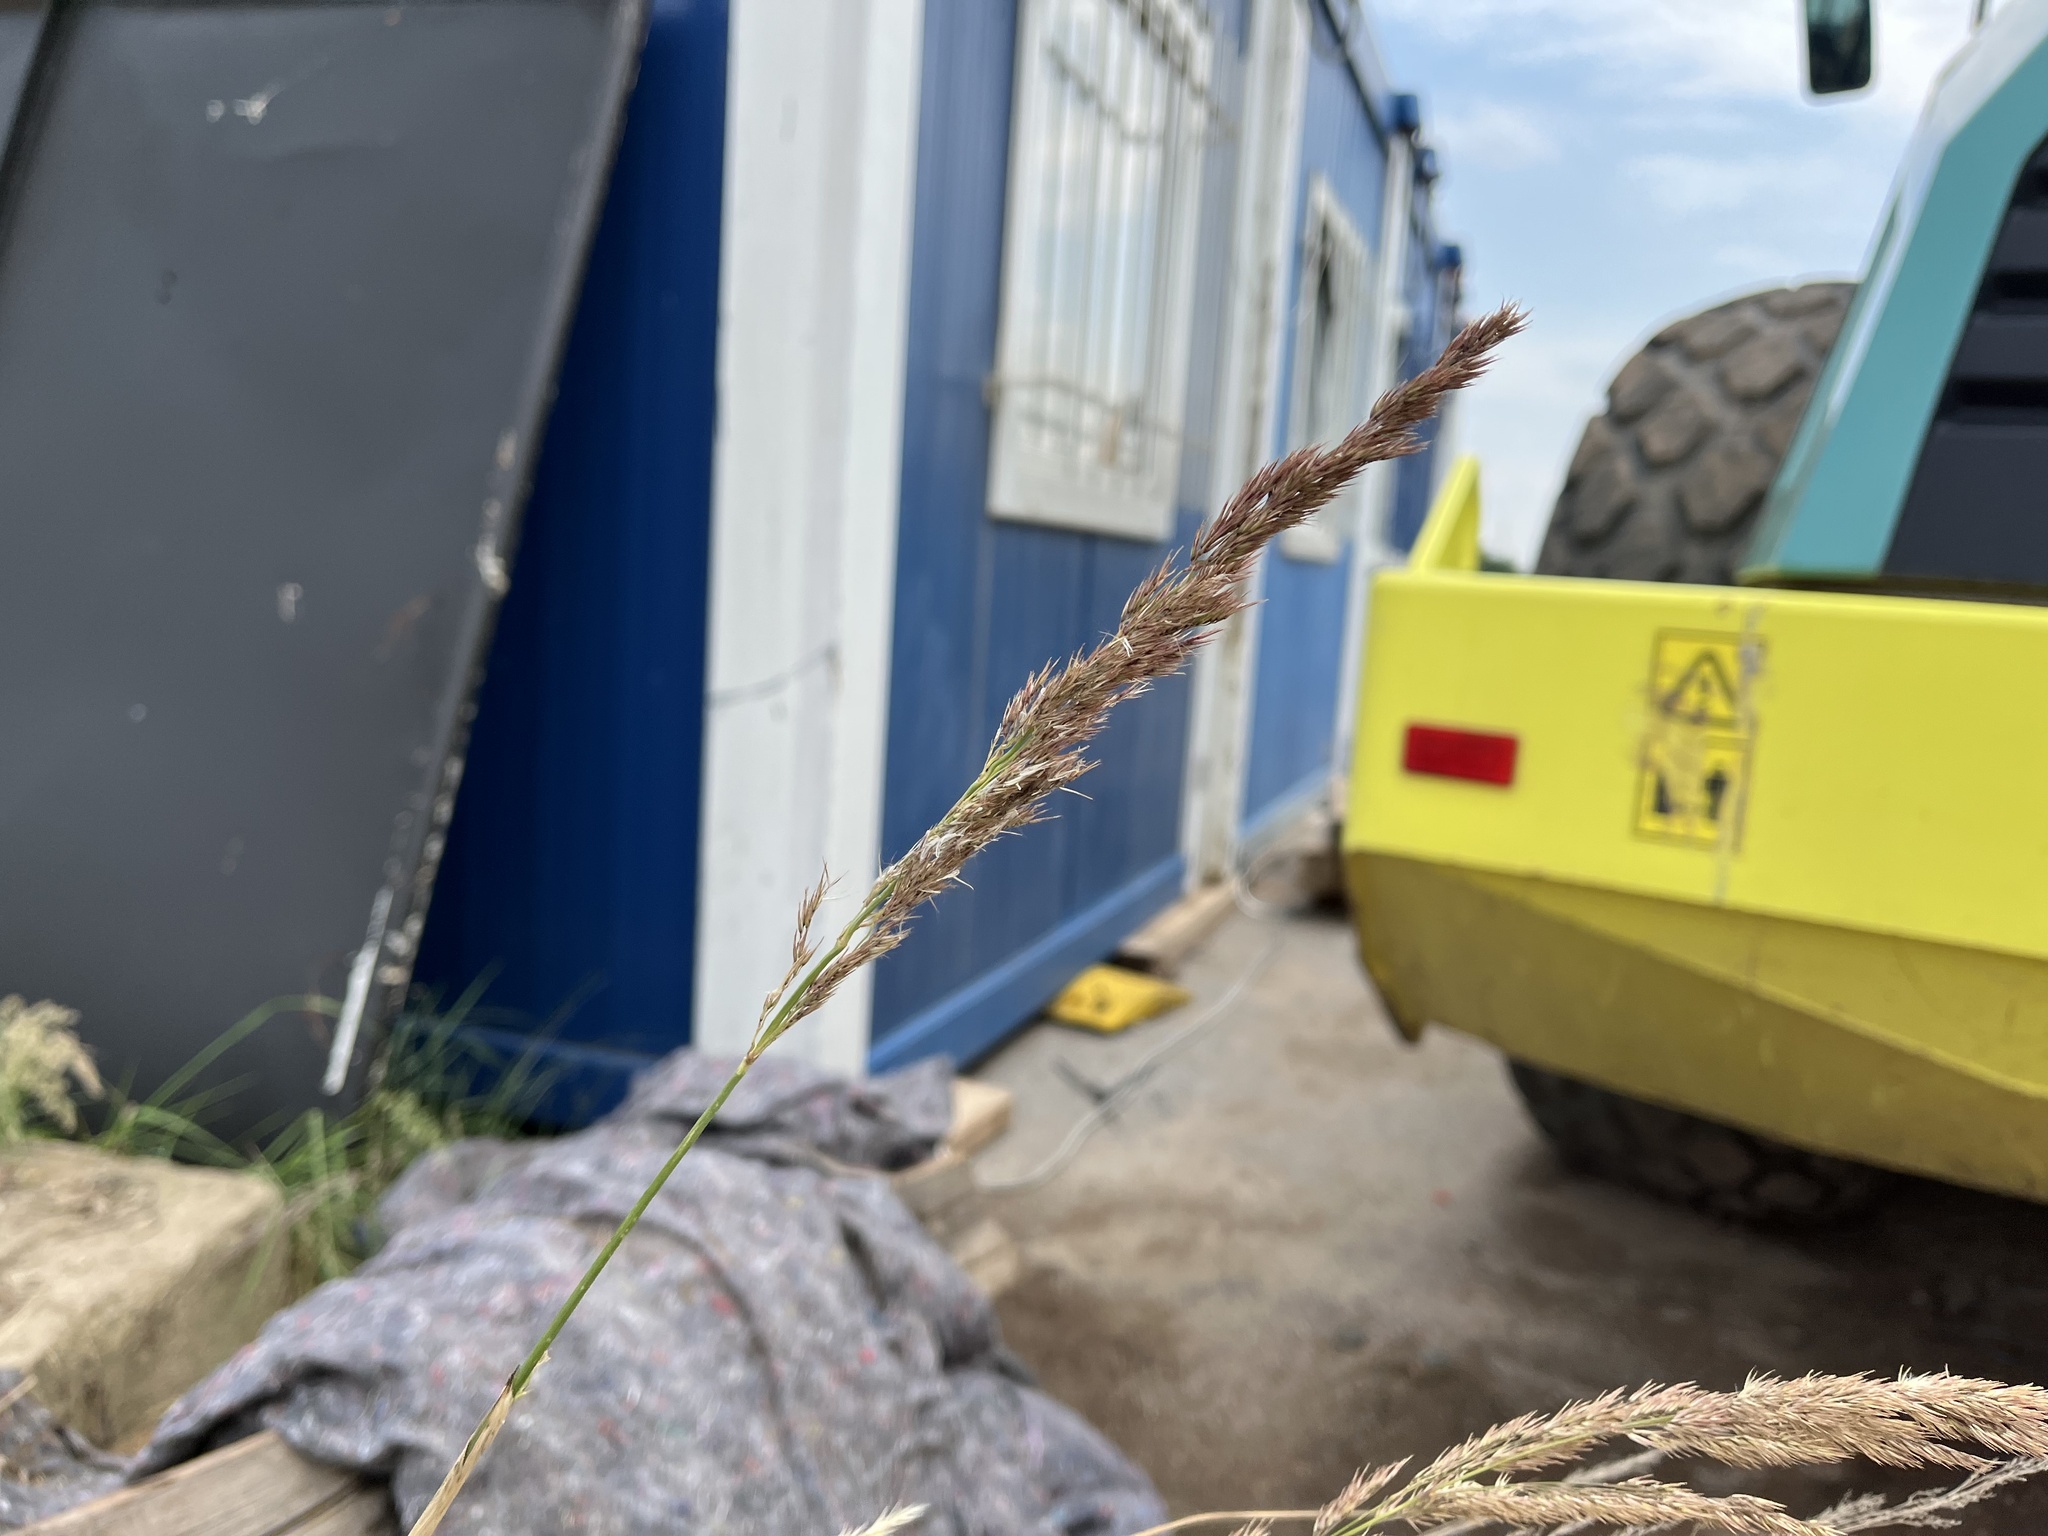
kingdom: Plantae
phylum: Tracheophyta
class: Liliopsida
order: Poales
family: Poaceae
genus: Calamagrostis
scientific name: Calamagrostis epigejos
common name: Wood small-reed
